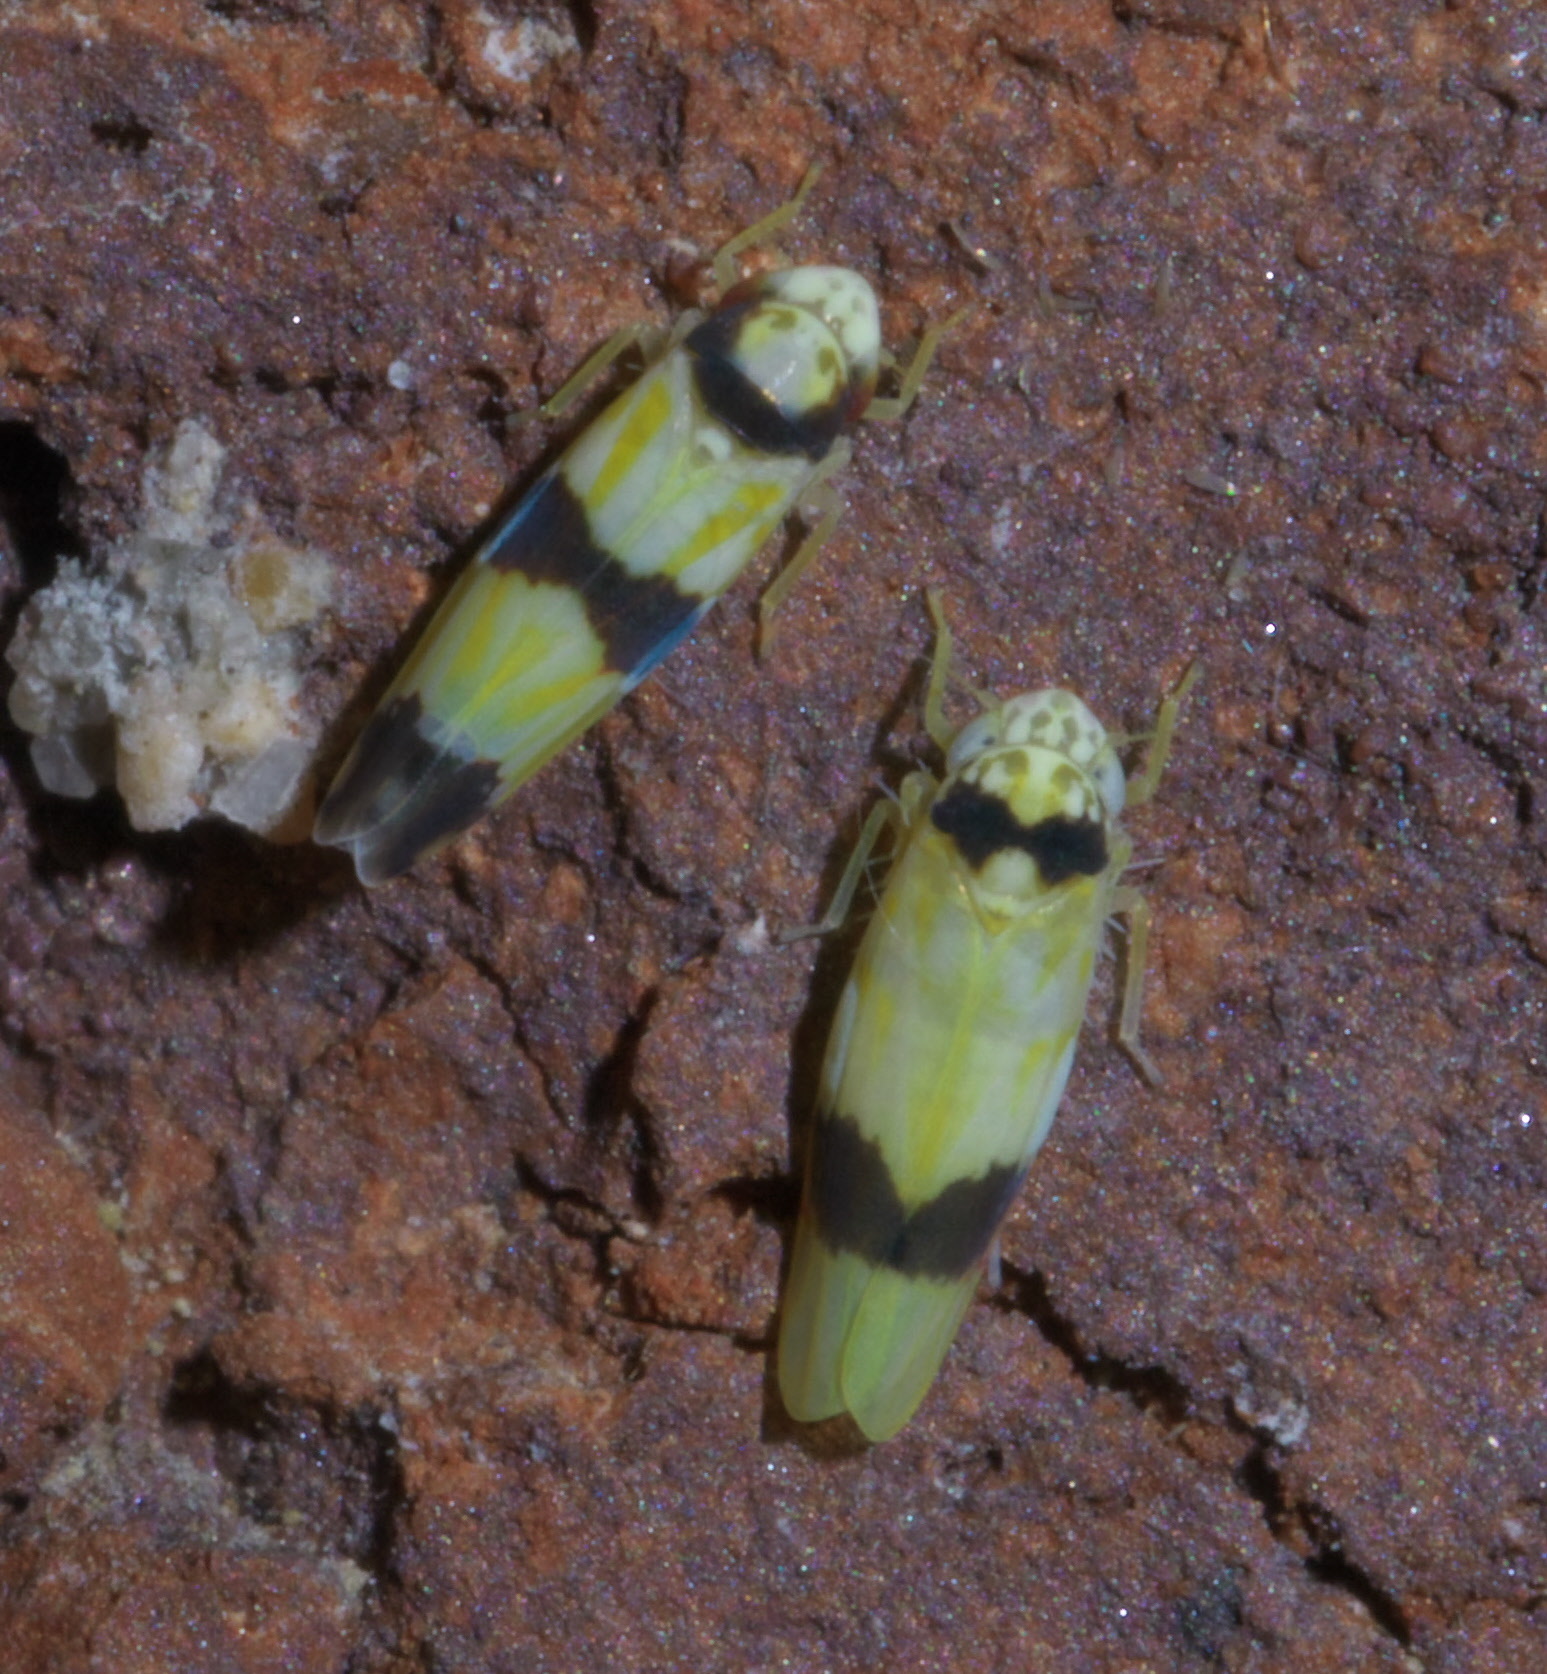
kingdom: Animalia
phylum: Arthropoda
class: Insecta
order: Hemiptera
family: Cicadellidae
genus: Eratoneura
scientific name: Eratoneura morgani
